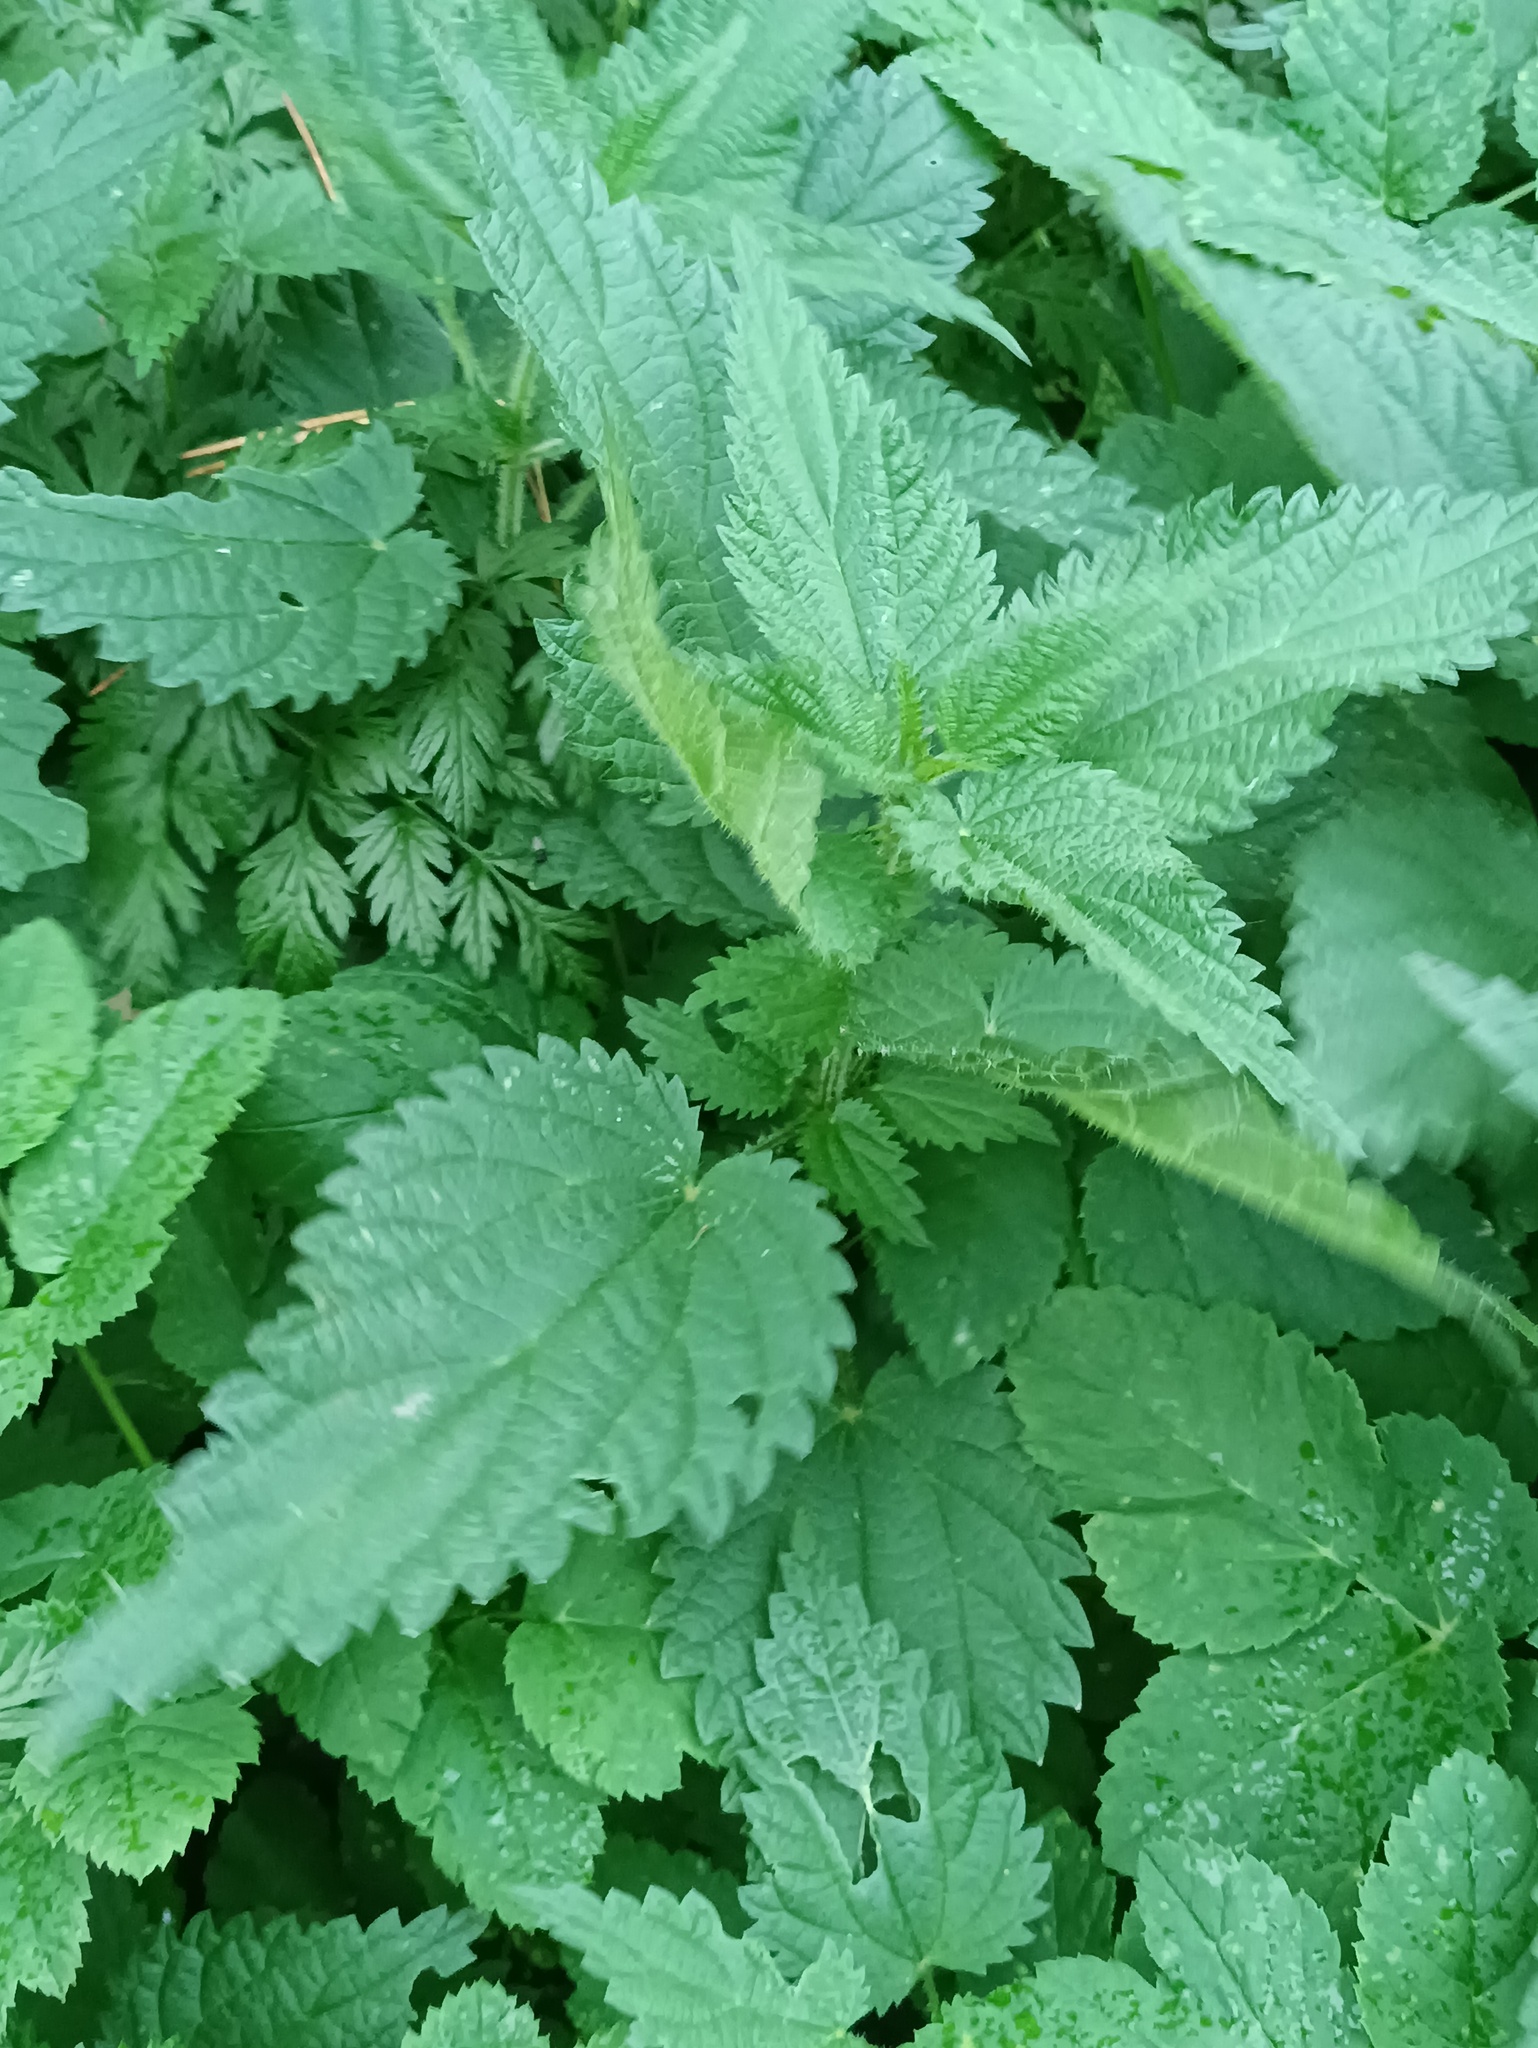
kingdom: Plantae
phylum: Tracheophyta
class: Magnoliopsida
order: Rosales
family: Urticaceae
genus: Urtica
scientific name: Urtica dioica
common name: Common nettle
